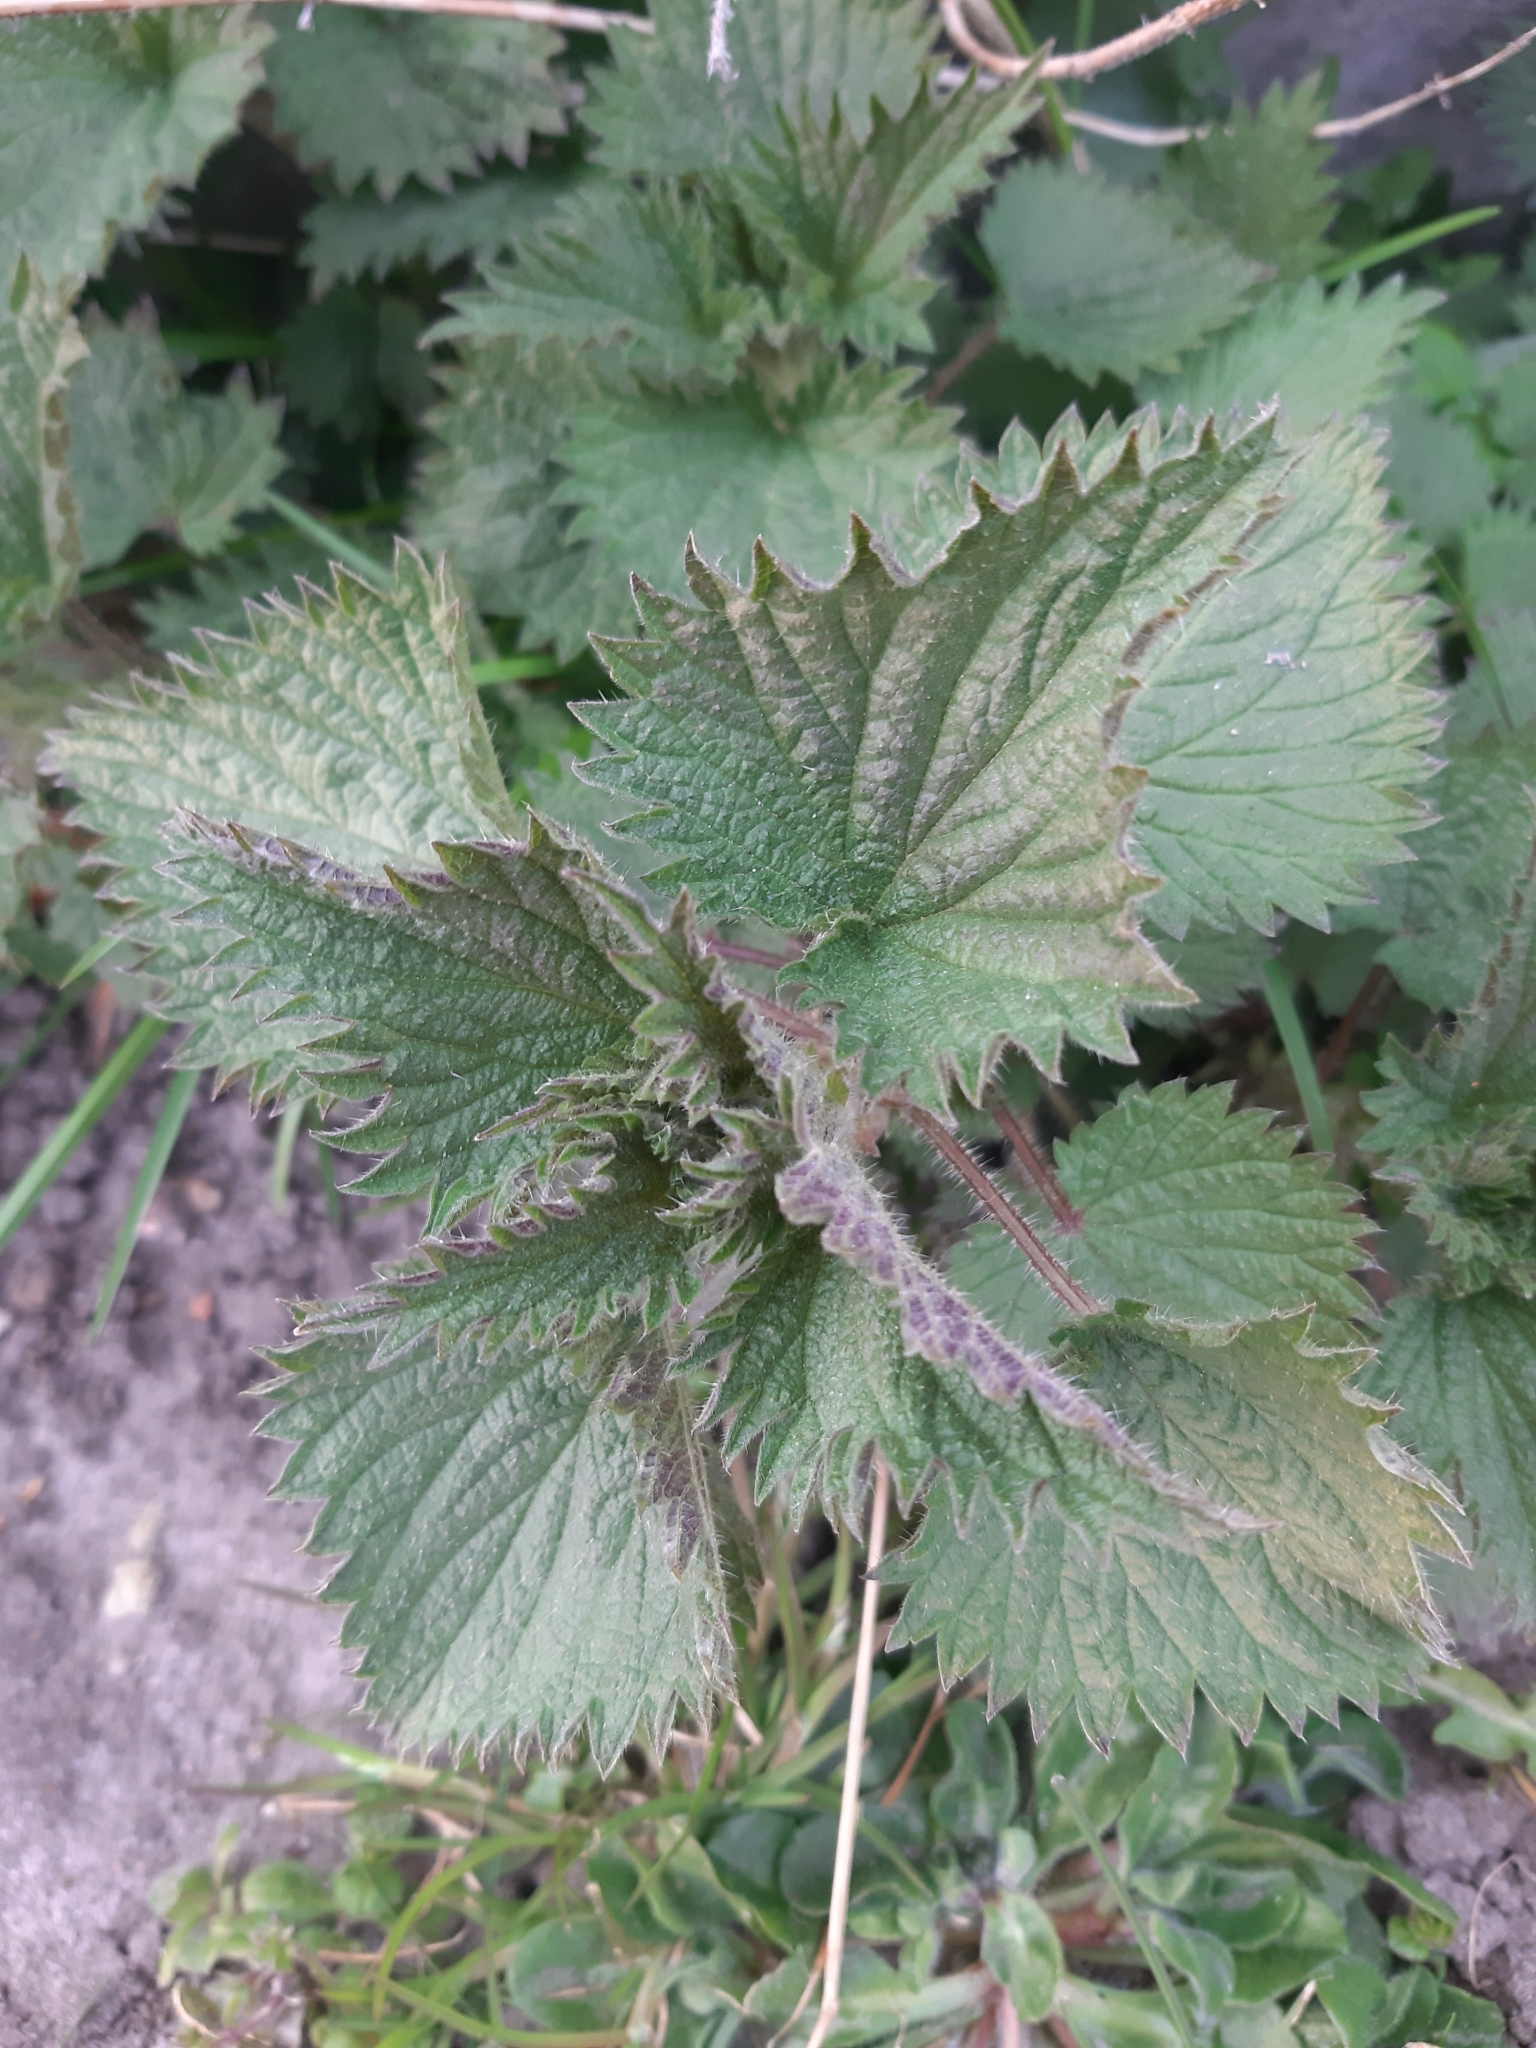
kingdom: Plantae
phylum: Tracheophyta
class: Magnoliopsida
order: Rosales
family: Urticaceae
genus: Urtica
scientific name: Urtica dioica
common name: Common nettle
